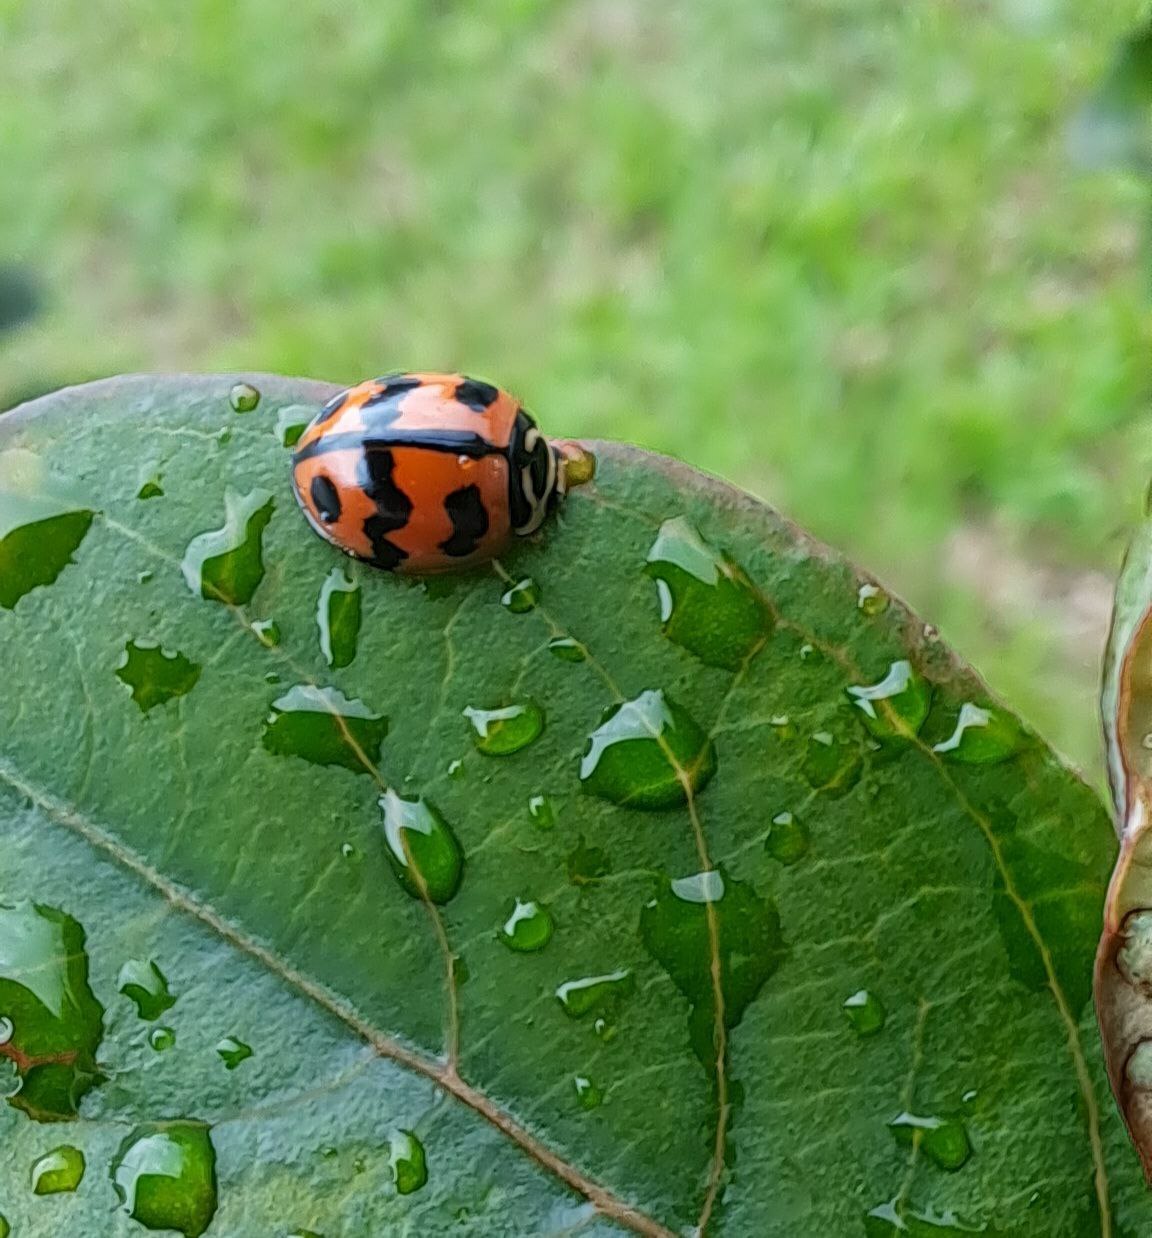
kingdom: Animalia
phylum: Arthropoda
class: Insecta
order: Coleoptera
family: Coccinellidae
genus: Cheilomenes
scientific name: Cheilomenes sexmaculata
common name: Ladybird beetle
